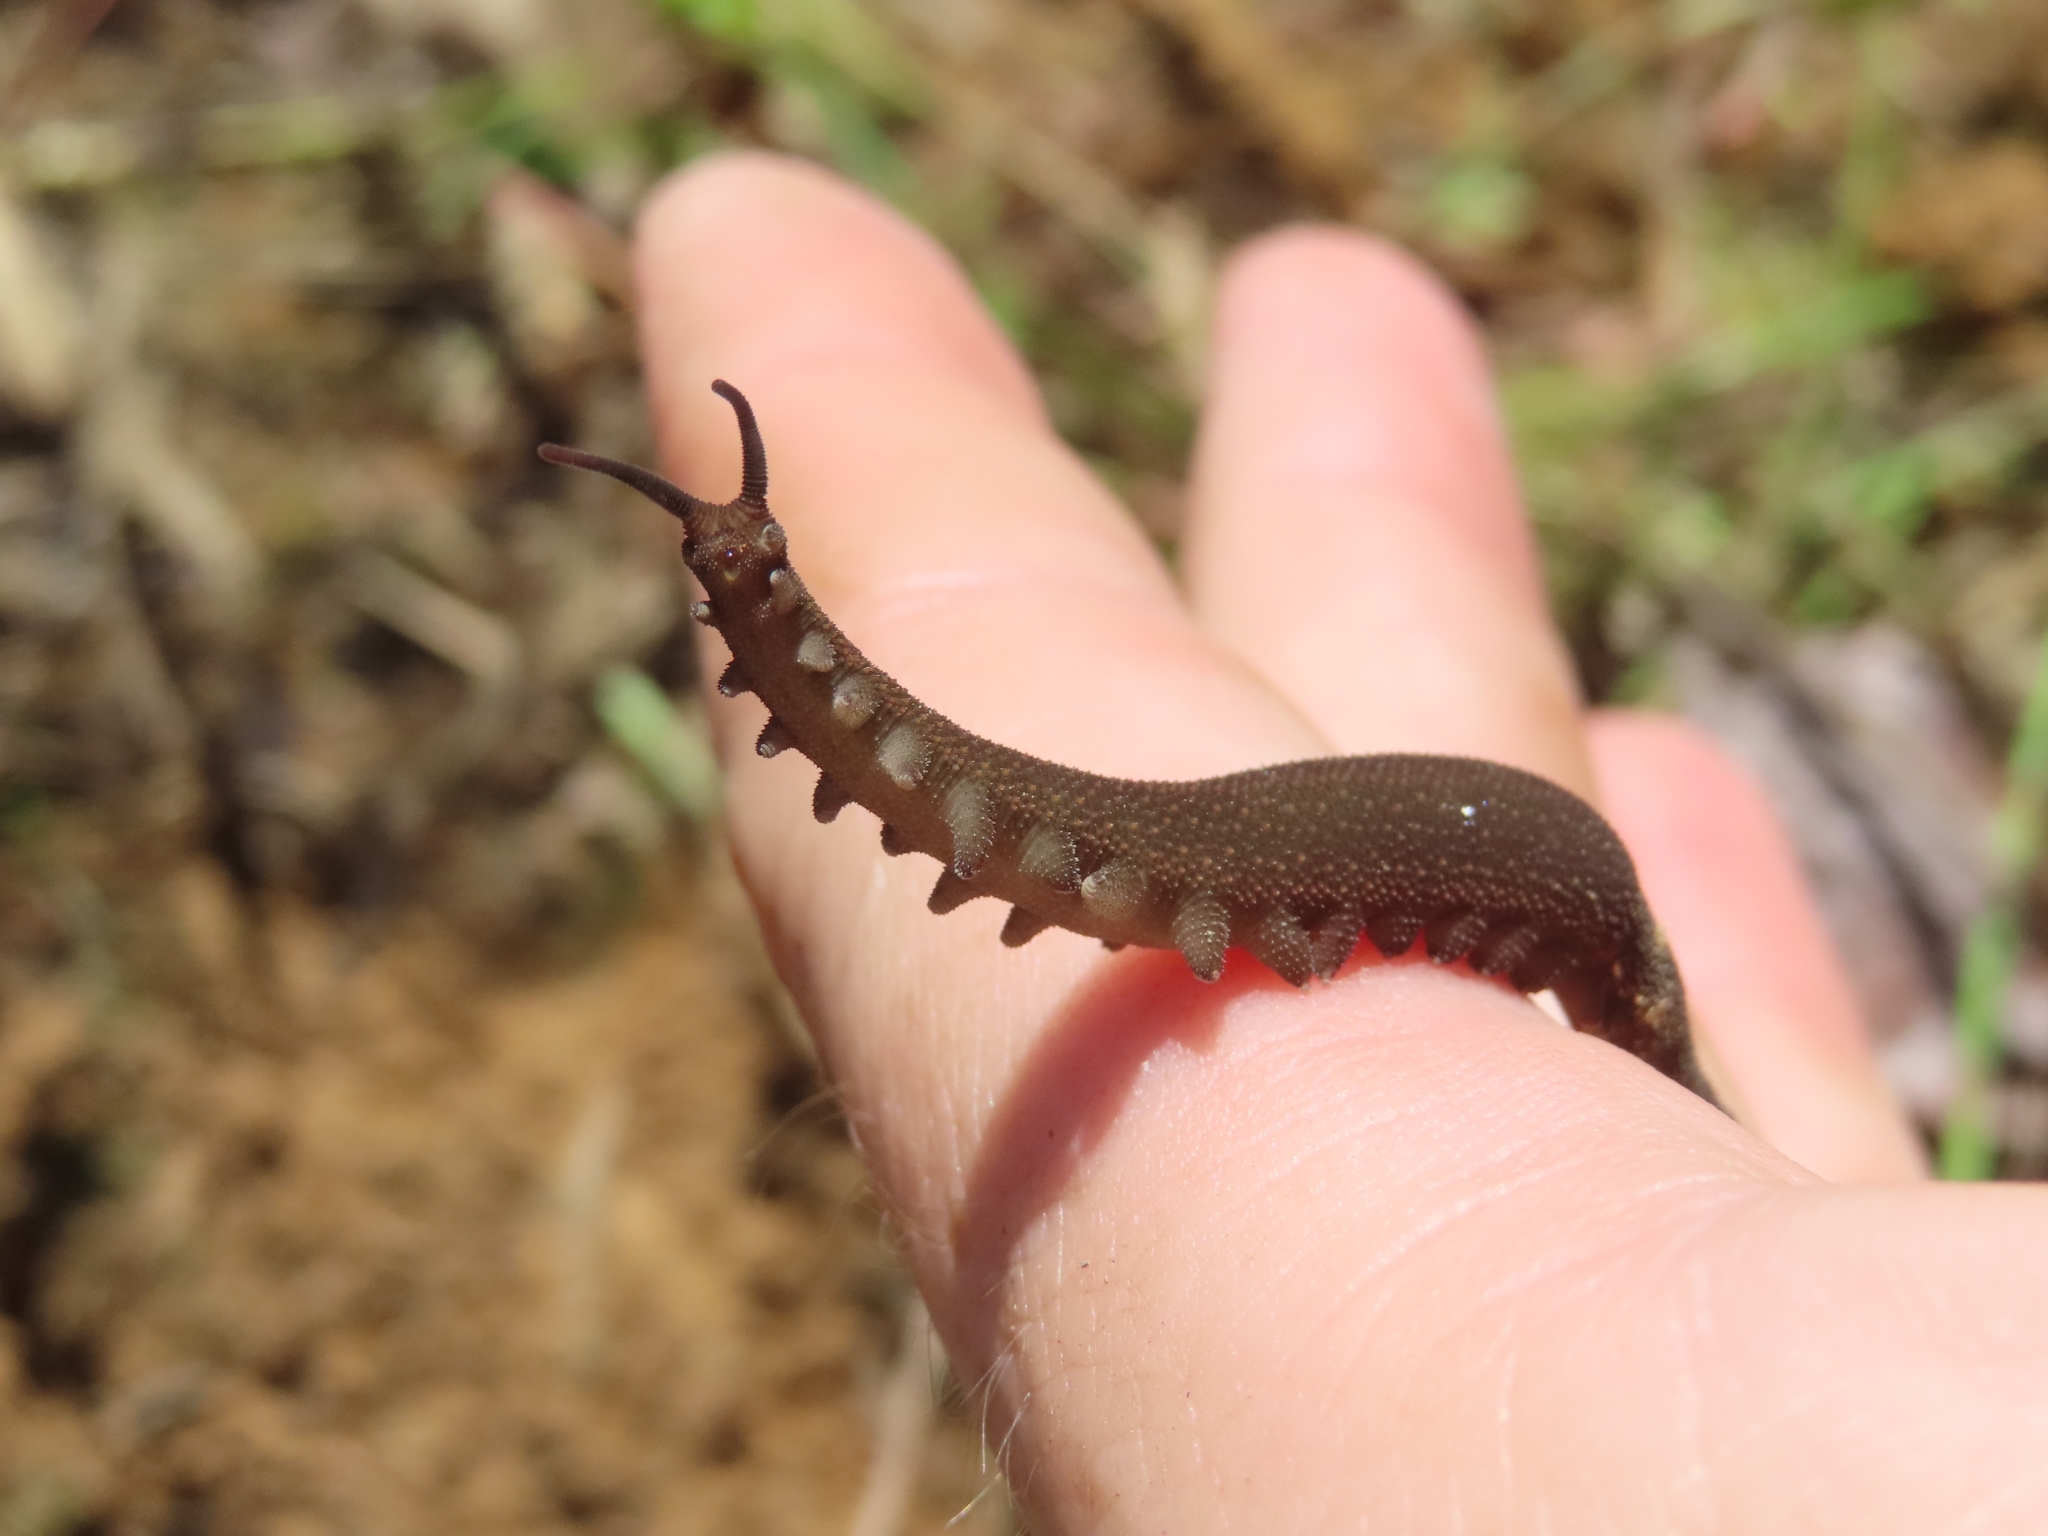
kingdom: Animalia
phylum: Onychophora
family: Peripatidae
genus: Peripatus
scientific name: Peripatus juanensis
